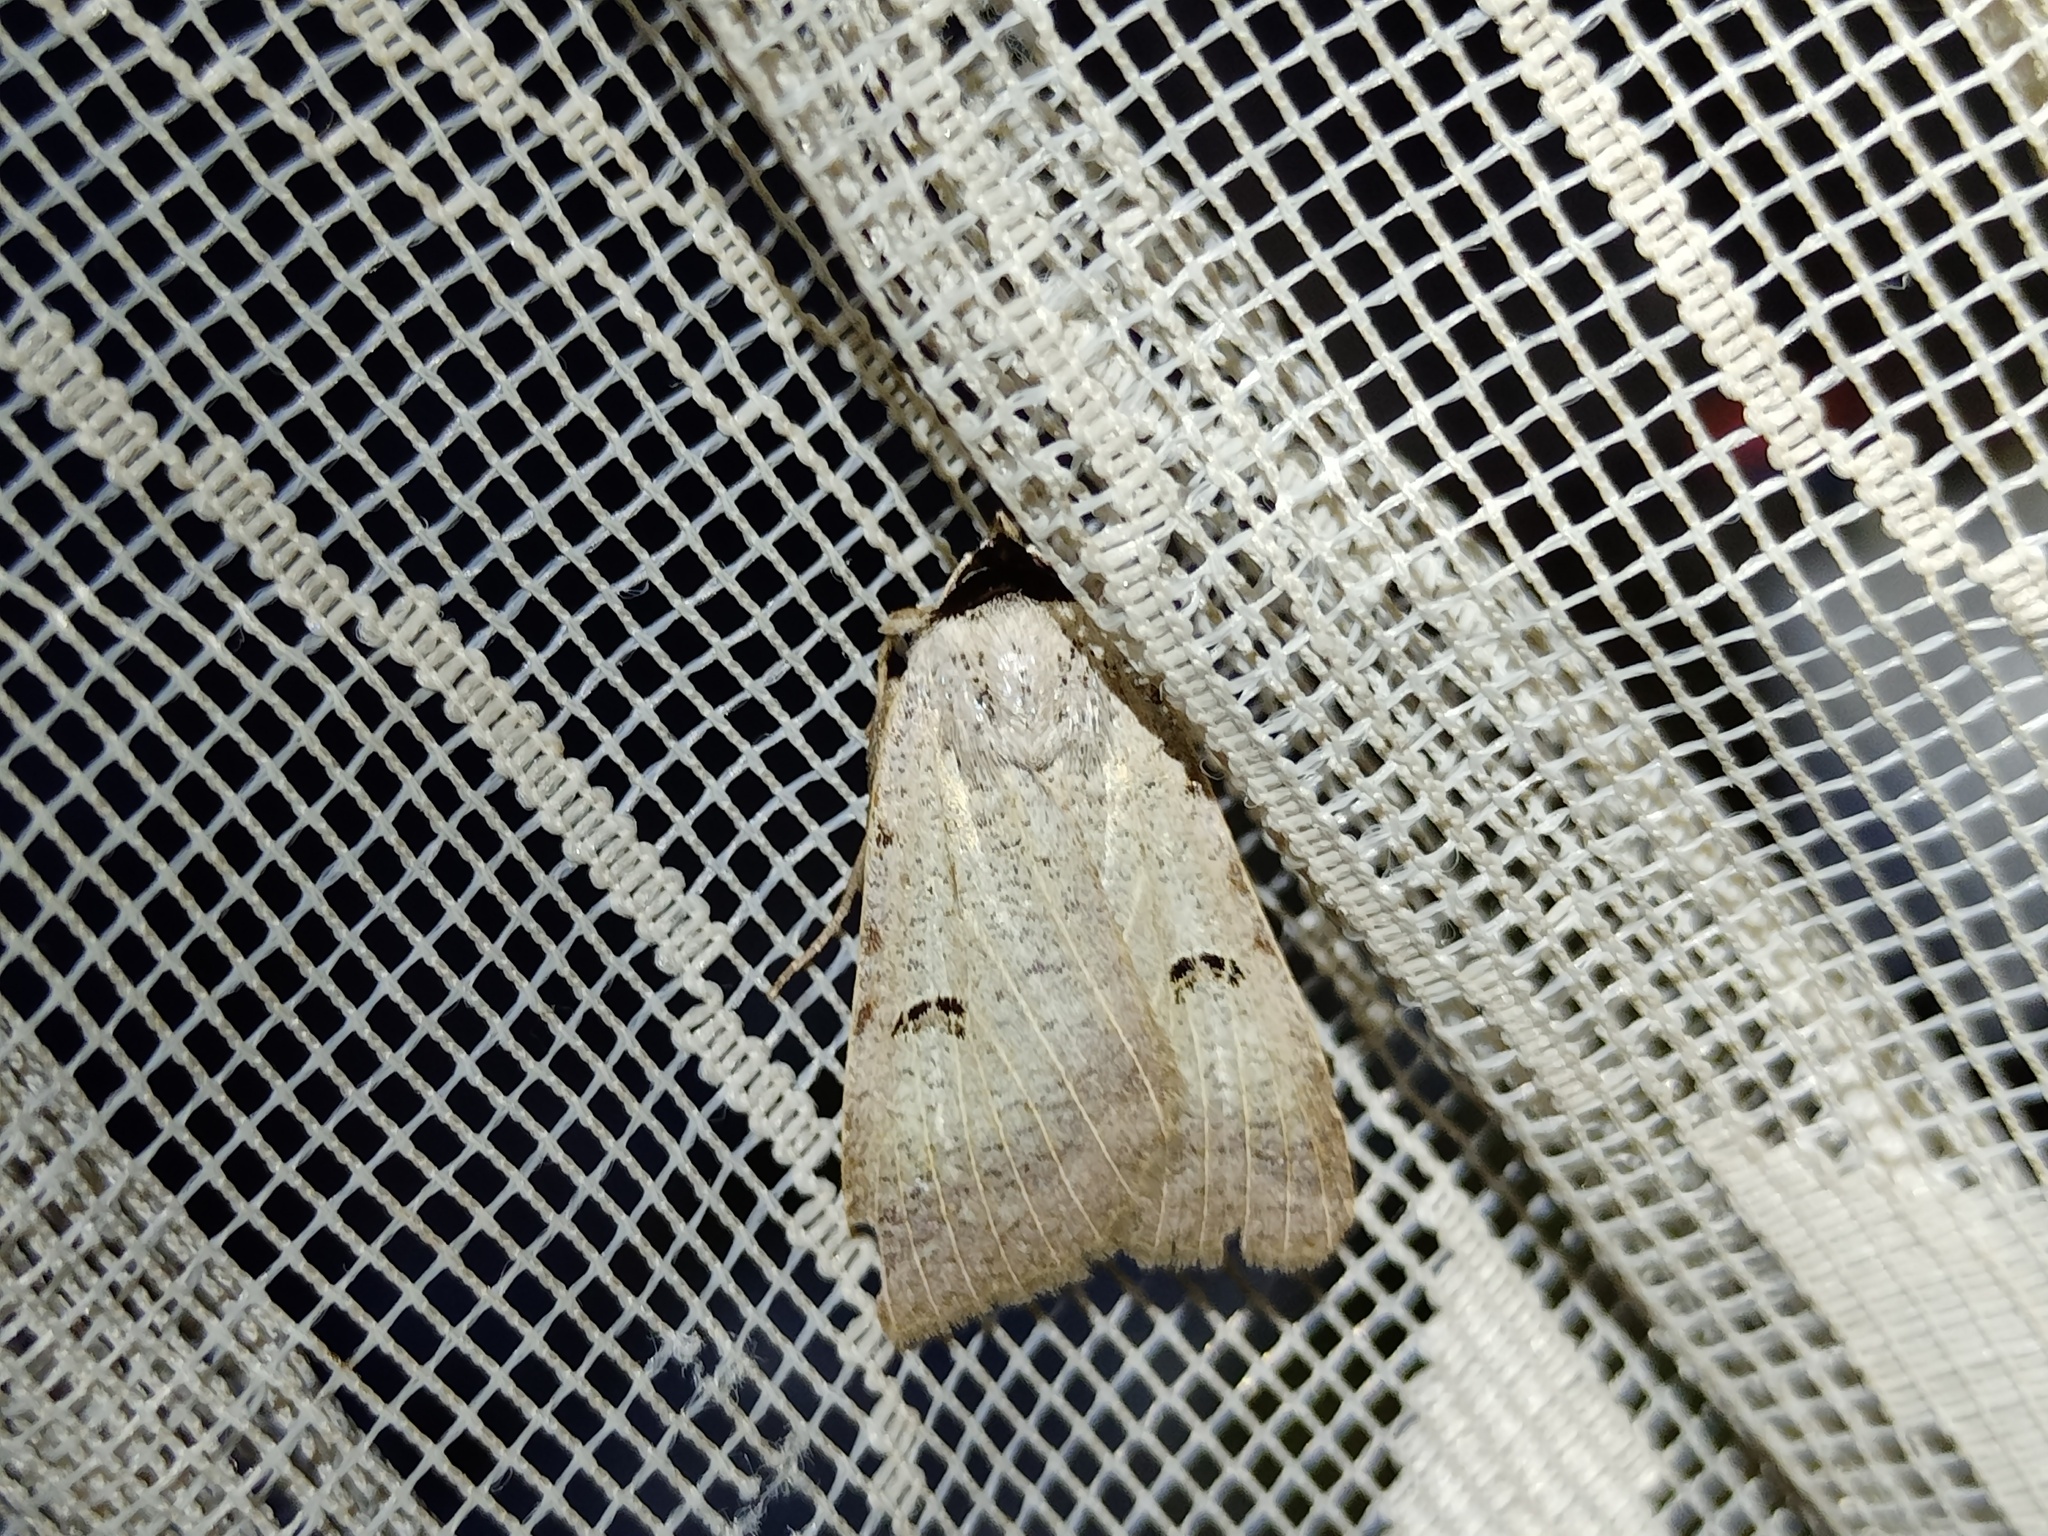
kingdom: Animalia
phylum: Arthropoda
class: Insecta
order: Lepidoptera
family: Erebidae
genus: Lygephila
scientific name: Lygephila craccae
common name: Scarce blackneck
